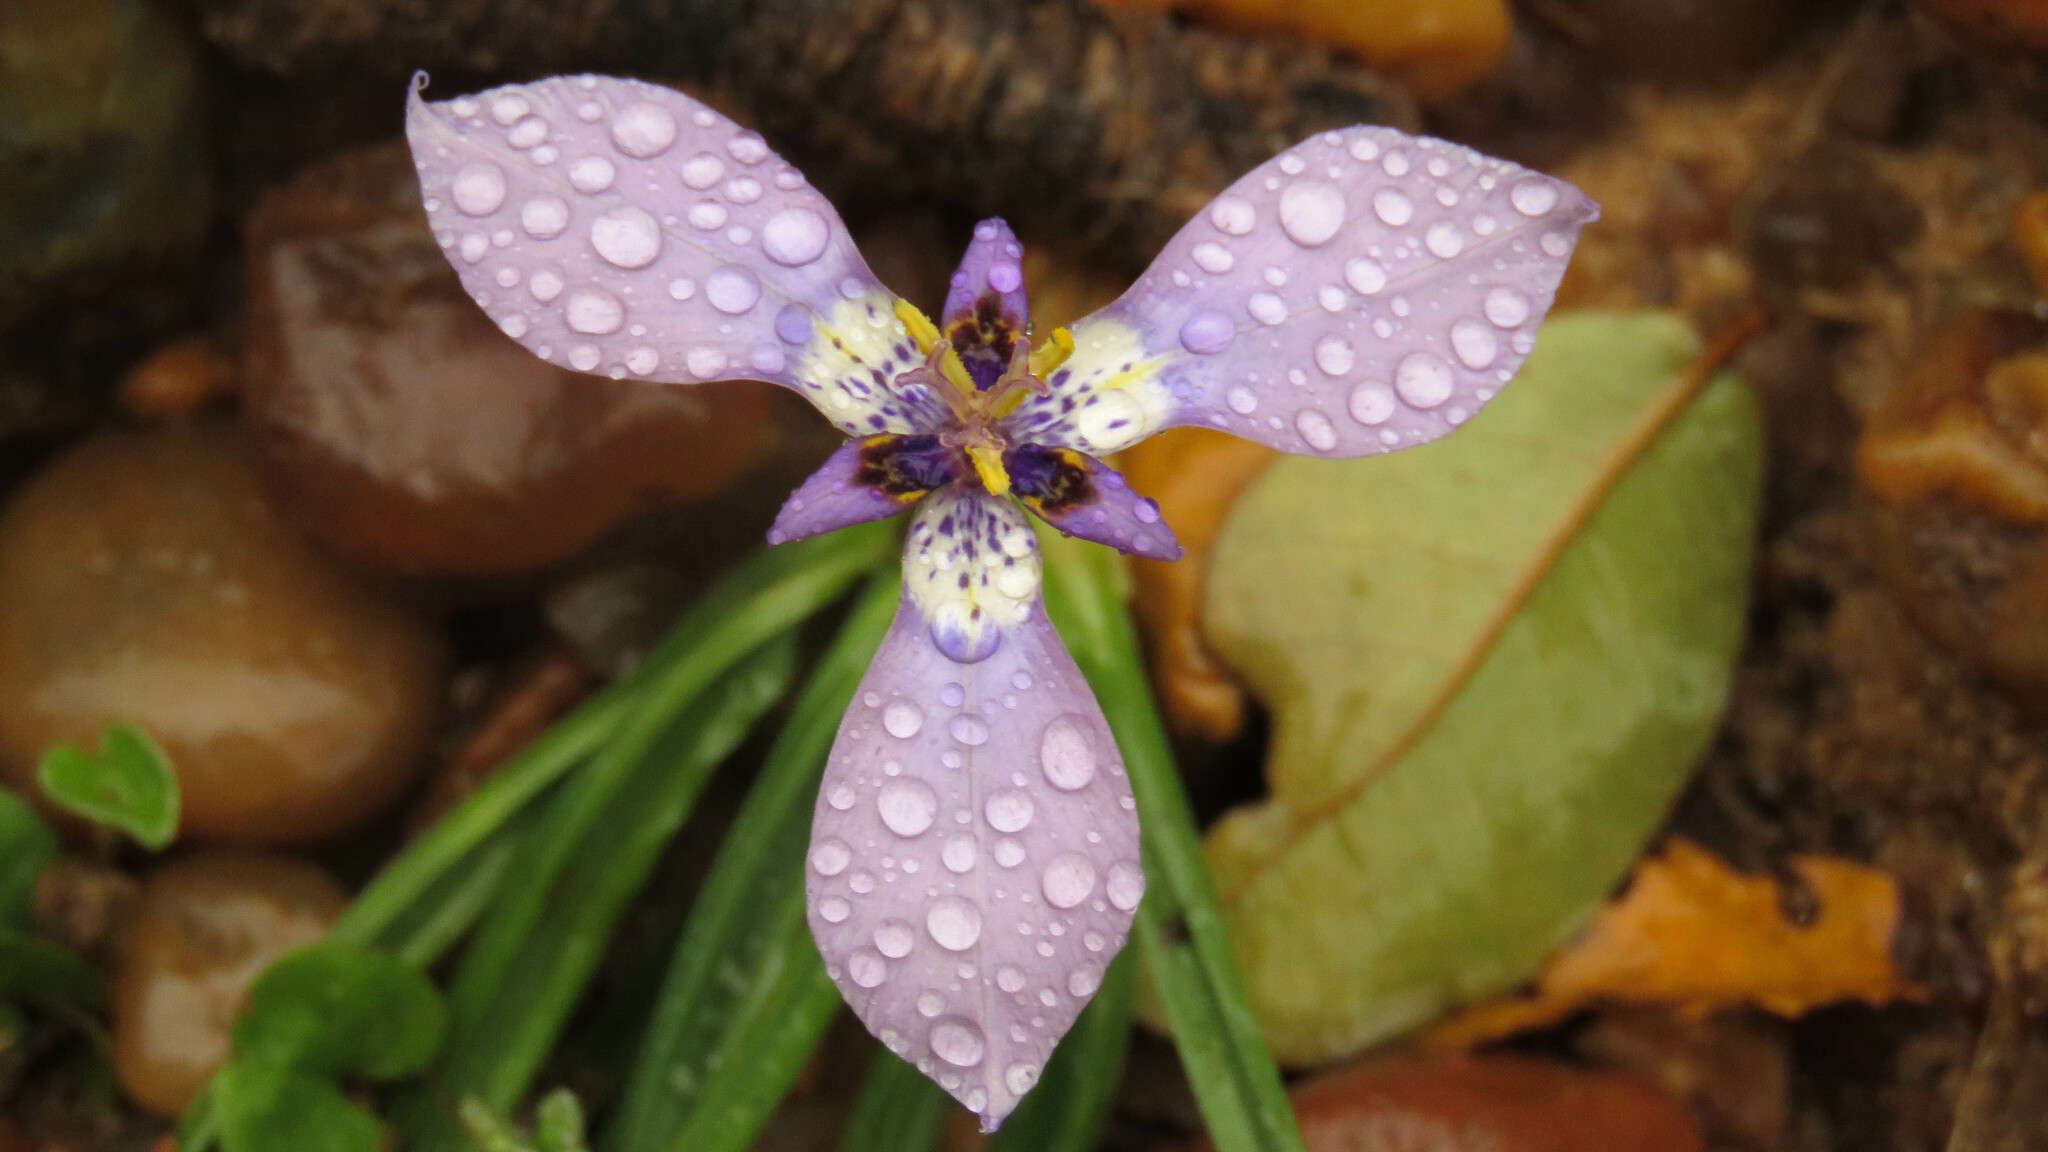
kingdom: Plantae
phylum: Tracheophyta
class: Liliopsida
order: Asparagales
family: Iridaceae
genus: Herbertia
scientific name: Herbertia lahue
